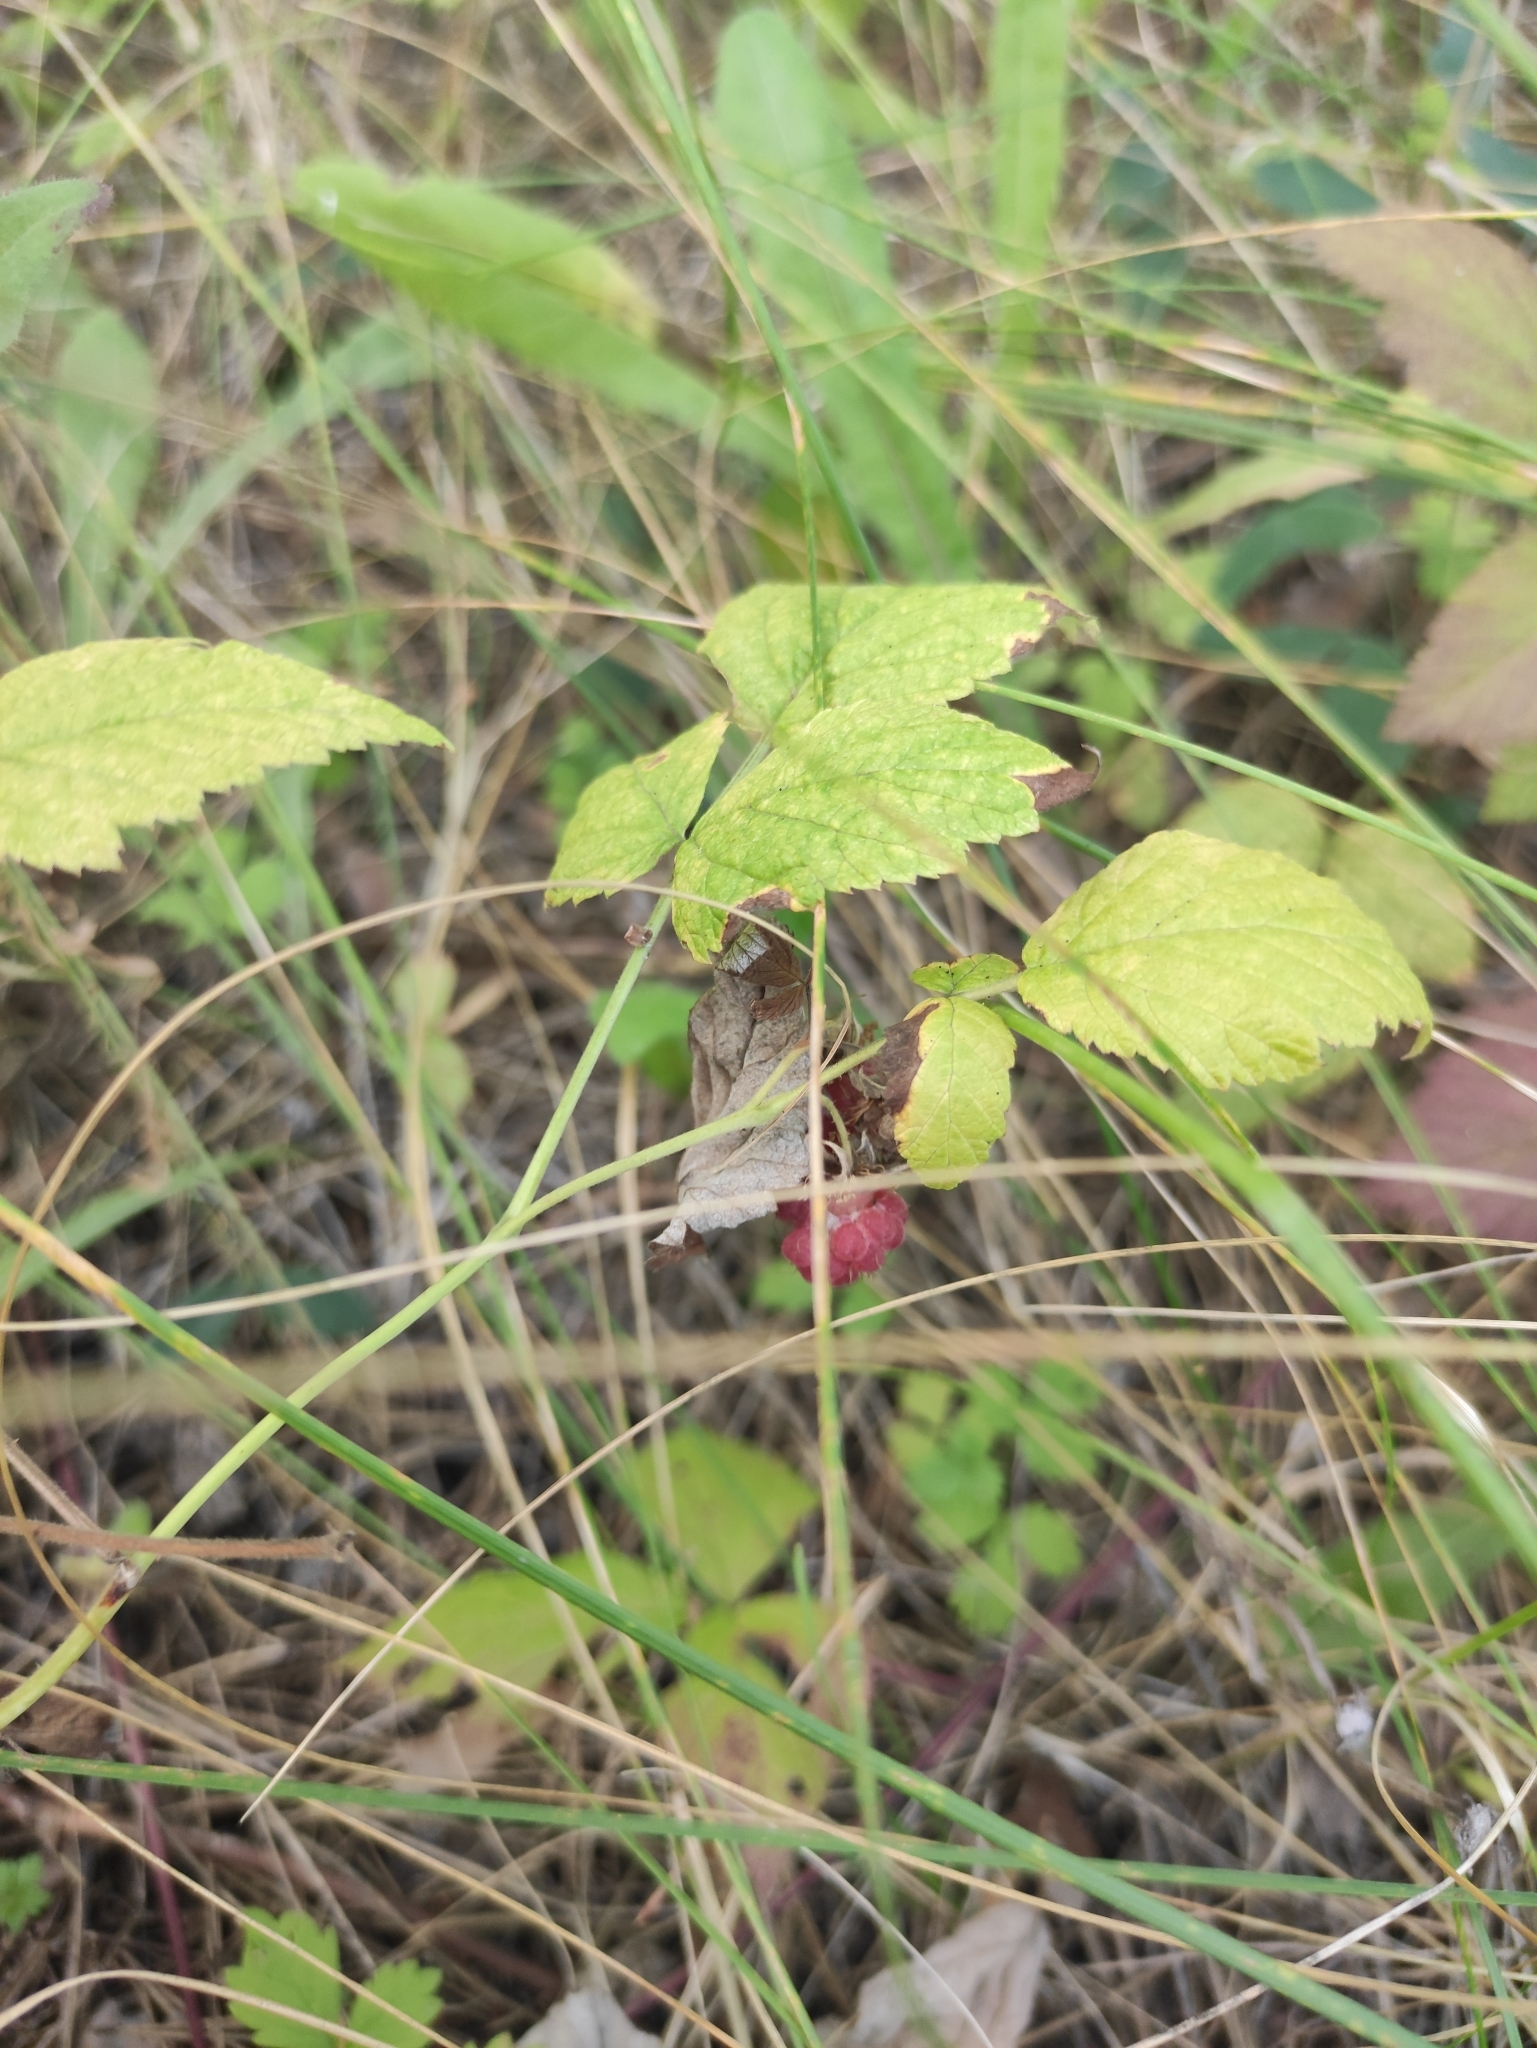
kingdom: Plantae
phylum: Tracheophyta
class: Magnoliopsida
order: Rosales
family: Rosaceae
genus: Rubus
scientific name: Rubus idaeus
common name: Raspberry
